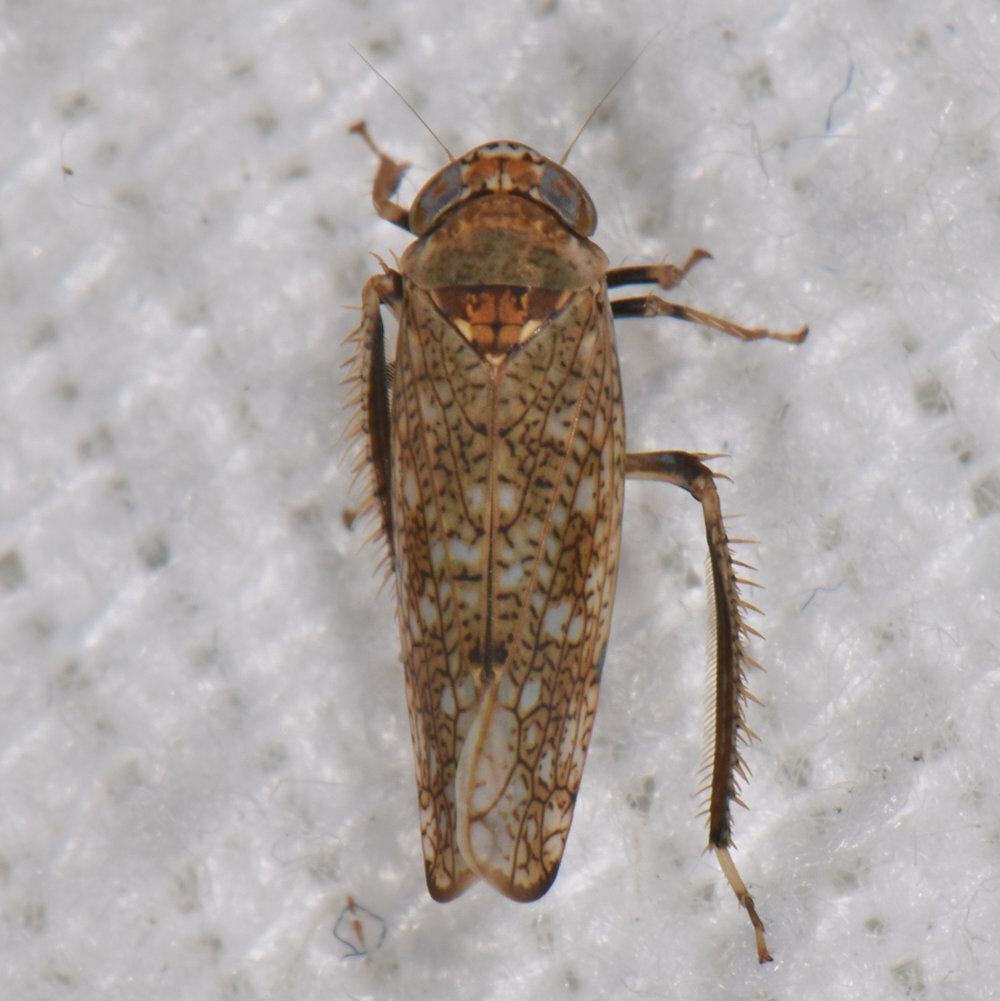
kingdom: Animalia
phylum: Arthropoda
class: Insecta
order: Hemiptera
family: Cicadellidae
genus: Orientus
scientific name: Orientus ishidae
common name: Japanese leafhopper
